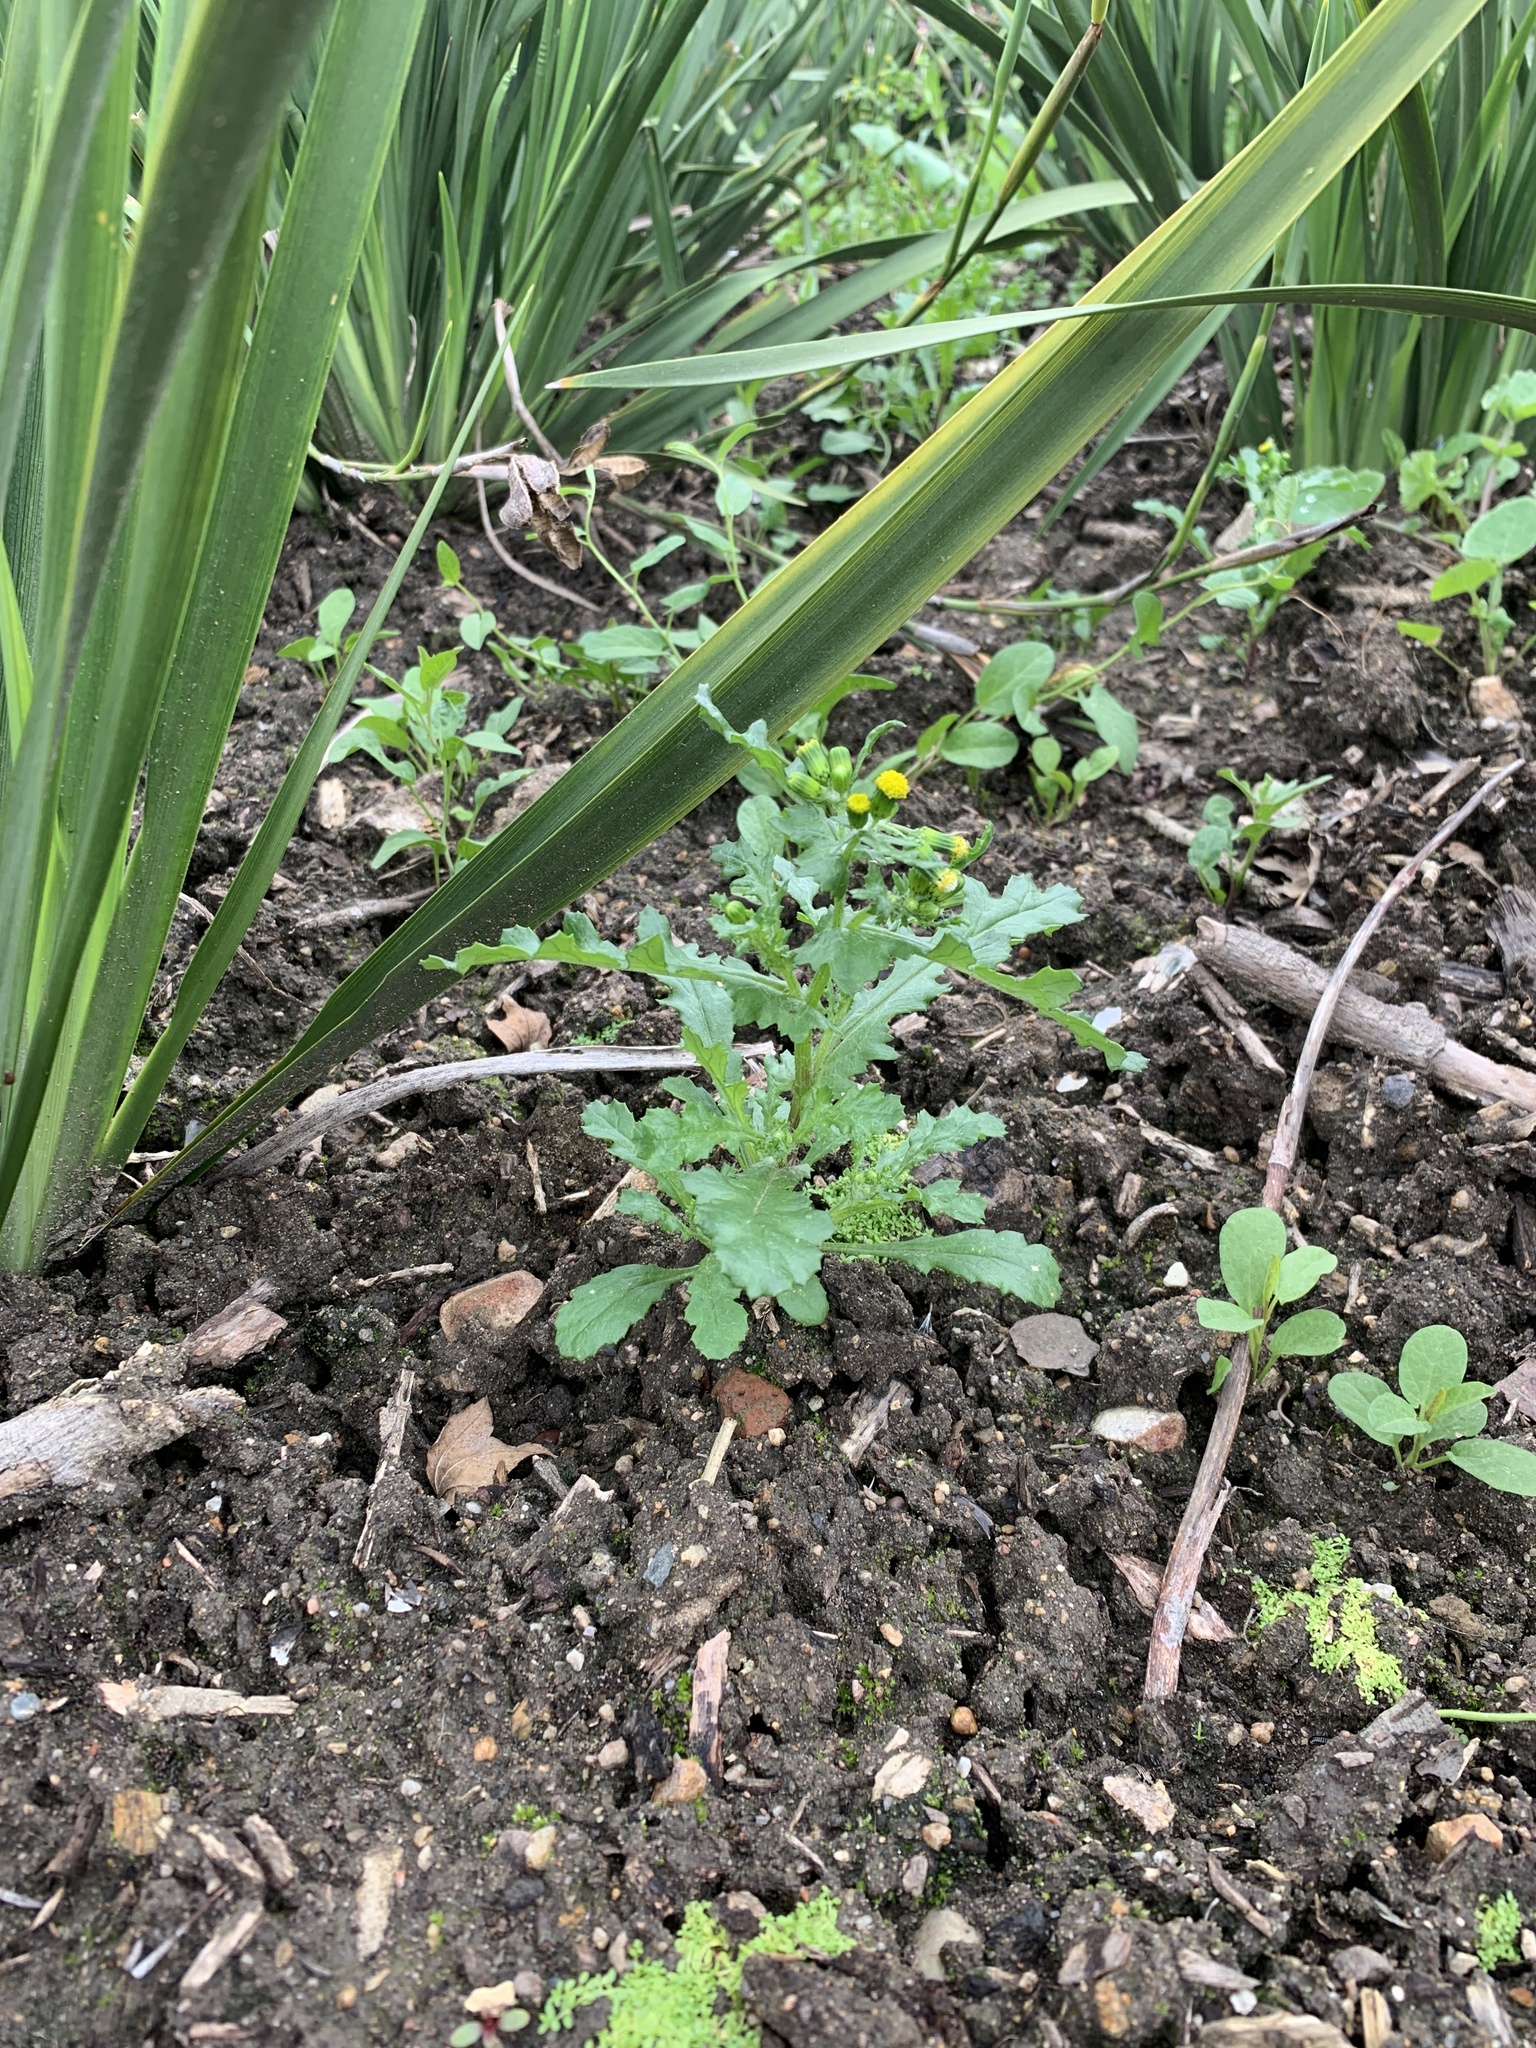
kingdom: Plantae
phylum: Tracheophyta
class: Magnoliopsida
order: Asterales
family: Asteraceae
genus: Senecio
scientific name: Senecio vulgaris
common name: Old-man-in-the-spring
